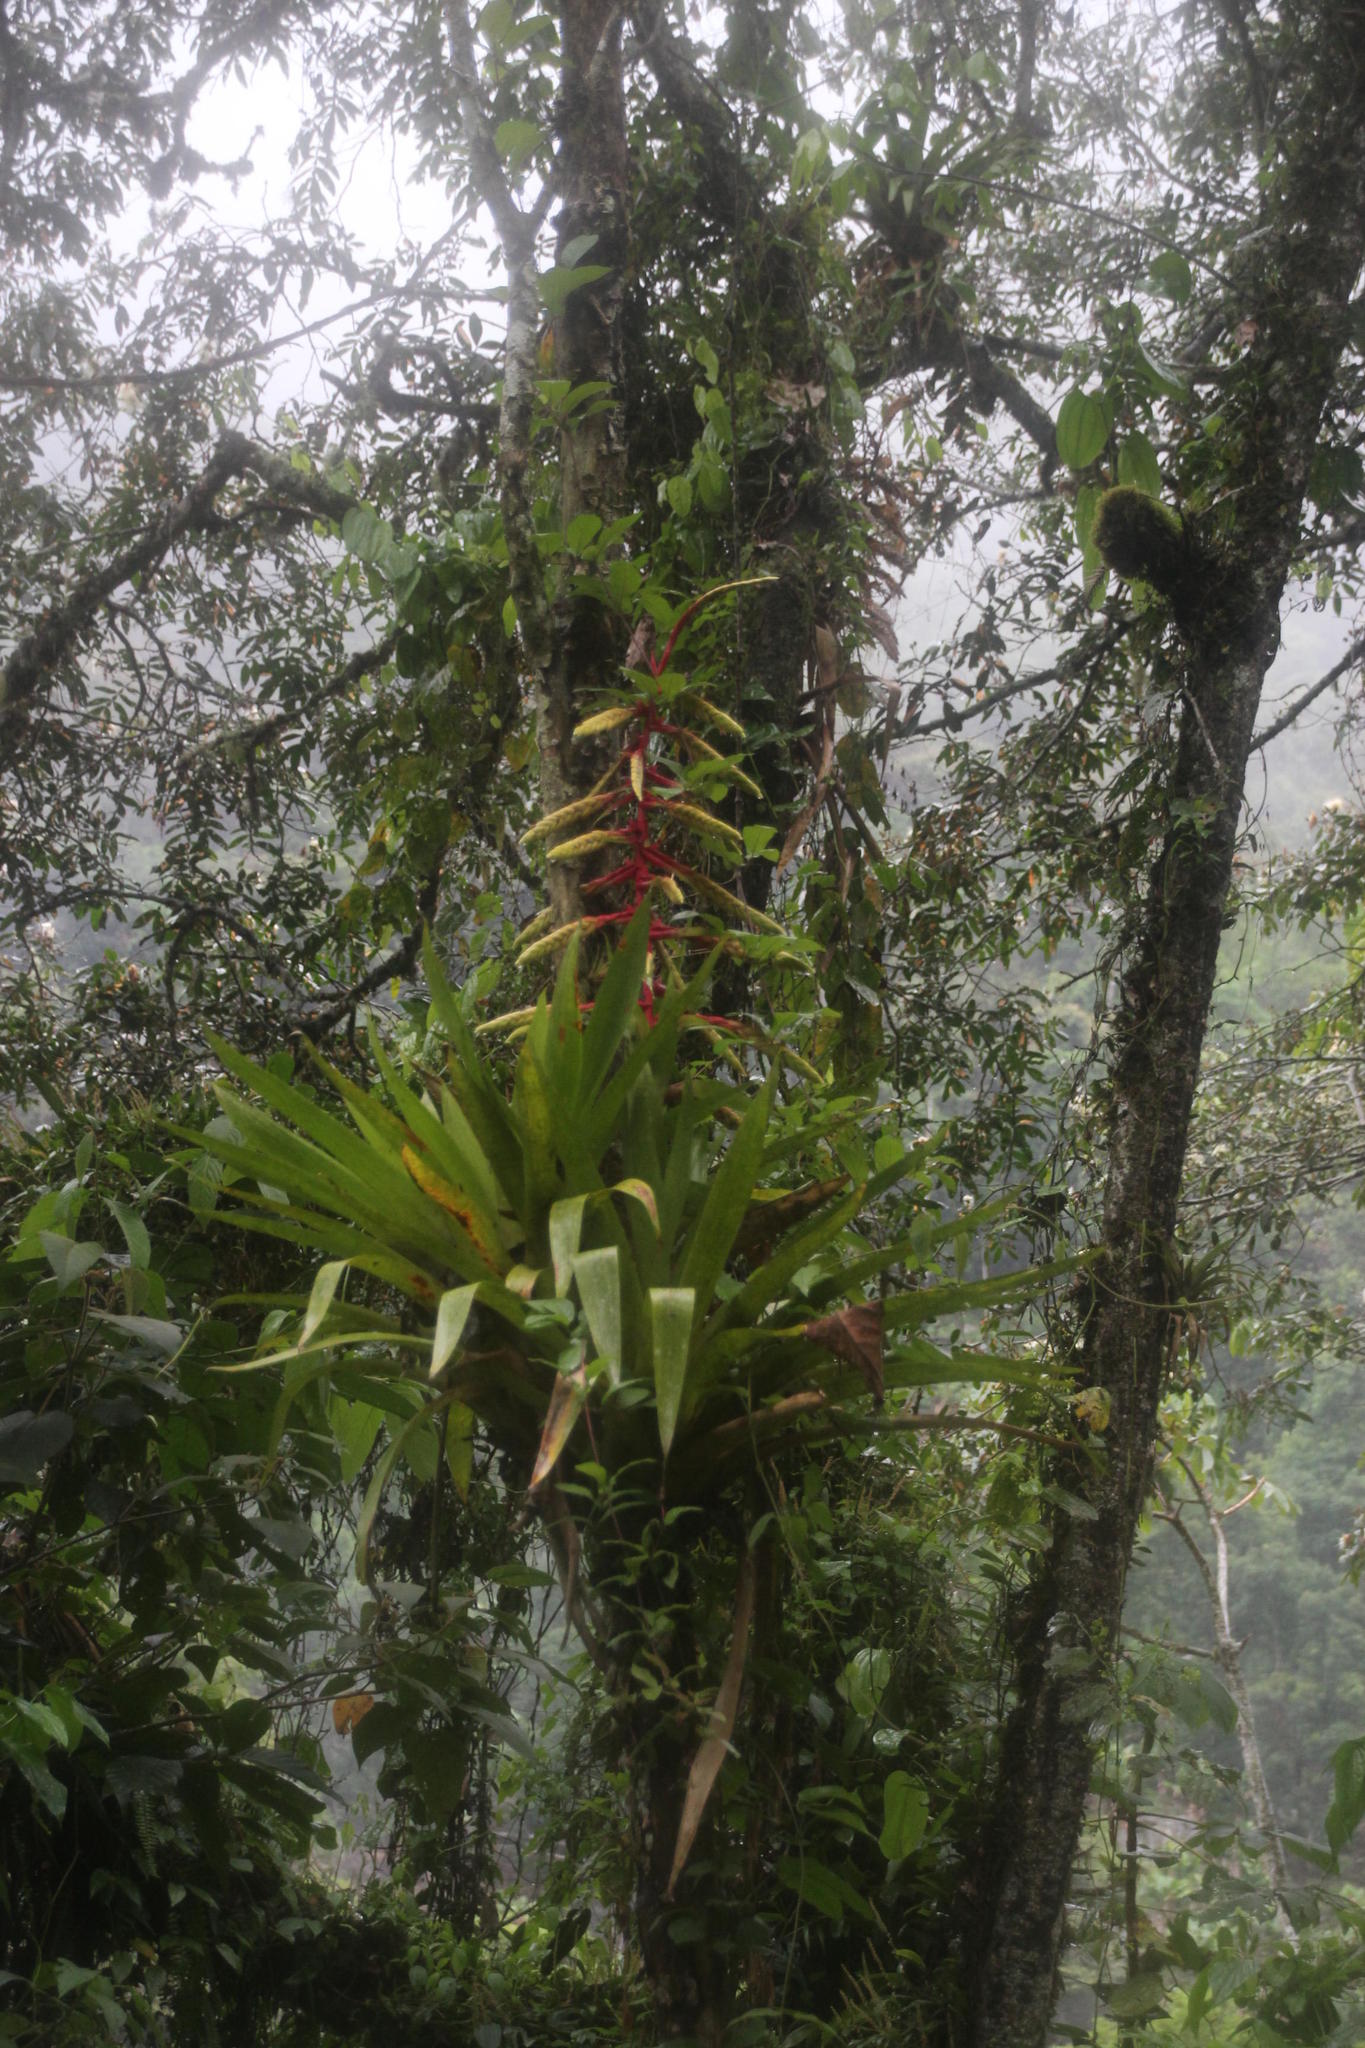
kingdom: Plantae
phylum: Tracheophyta
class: Liliopsida
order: Poales
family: Bromeliaceae
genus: Tillandsia
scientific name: Tillandsia fendleri
